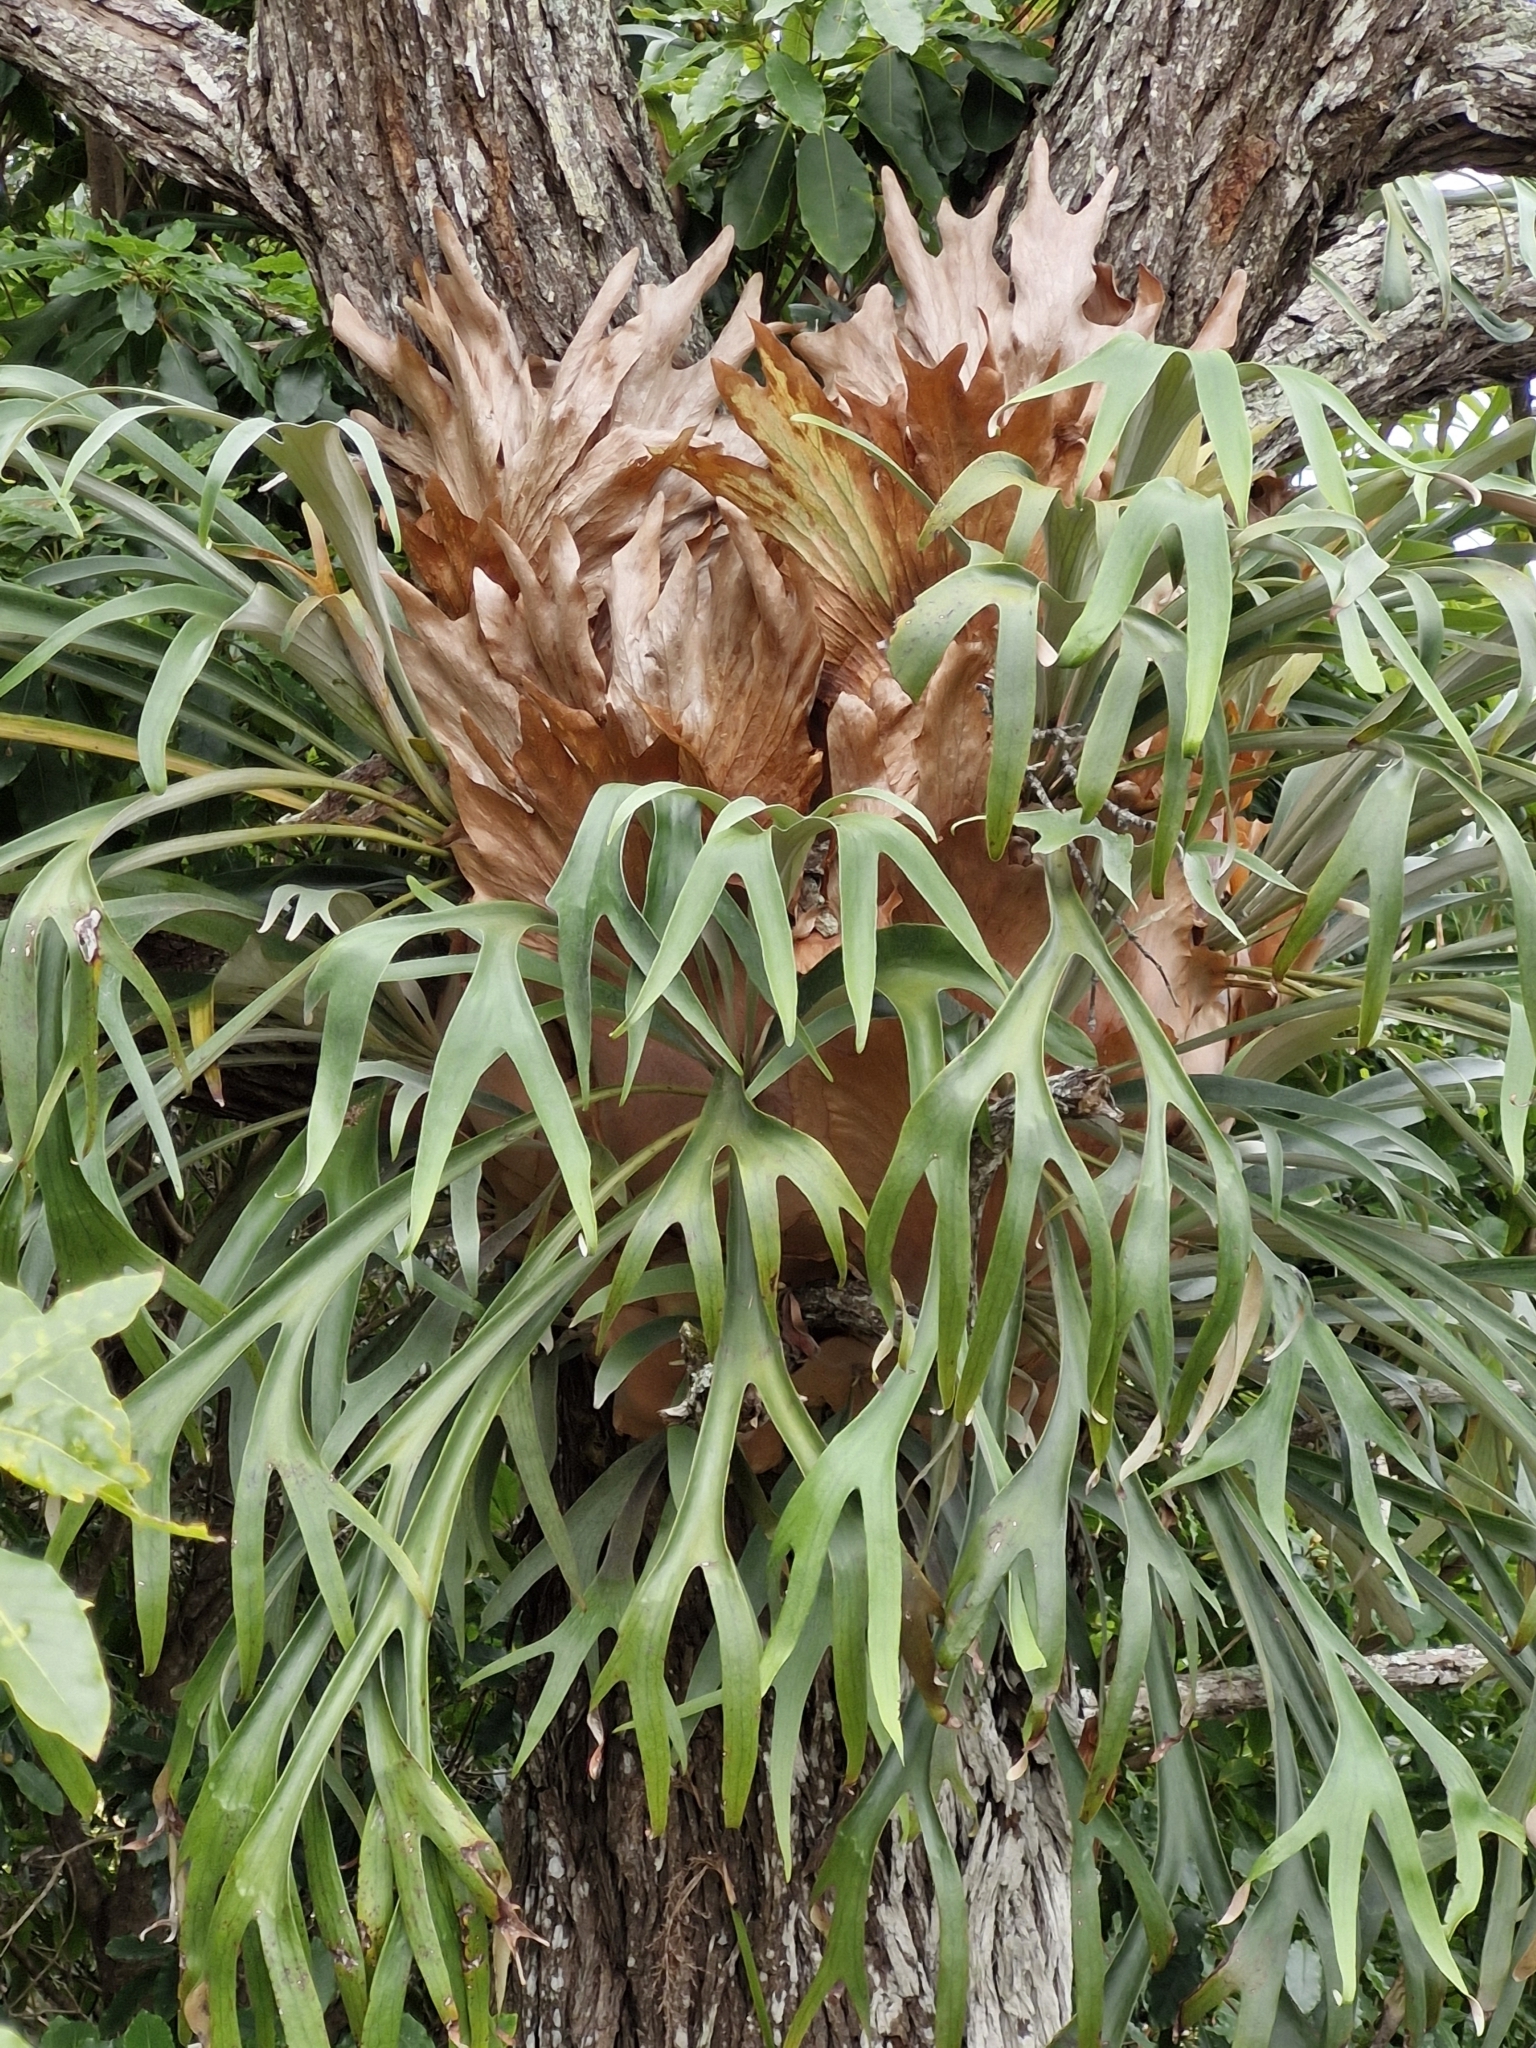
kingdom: Plantae
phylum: Tracheophyta
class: Polypodiopsida
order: Polypodiales
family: Polypodiaceae
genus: Platycerium
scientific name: Platycerium bifurcatum
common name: Elkhorn fern
